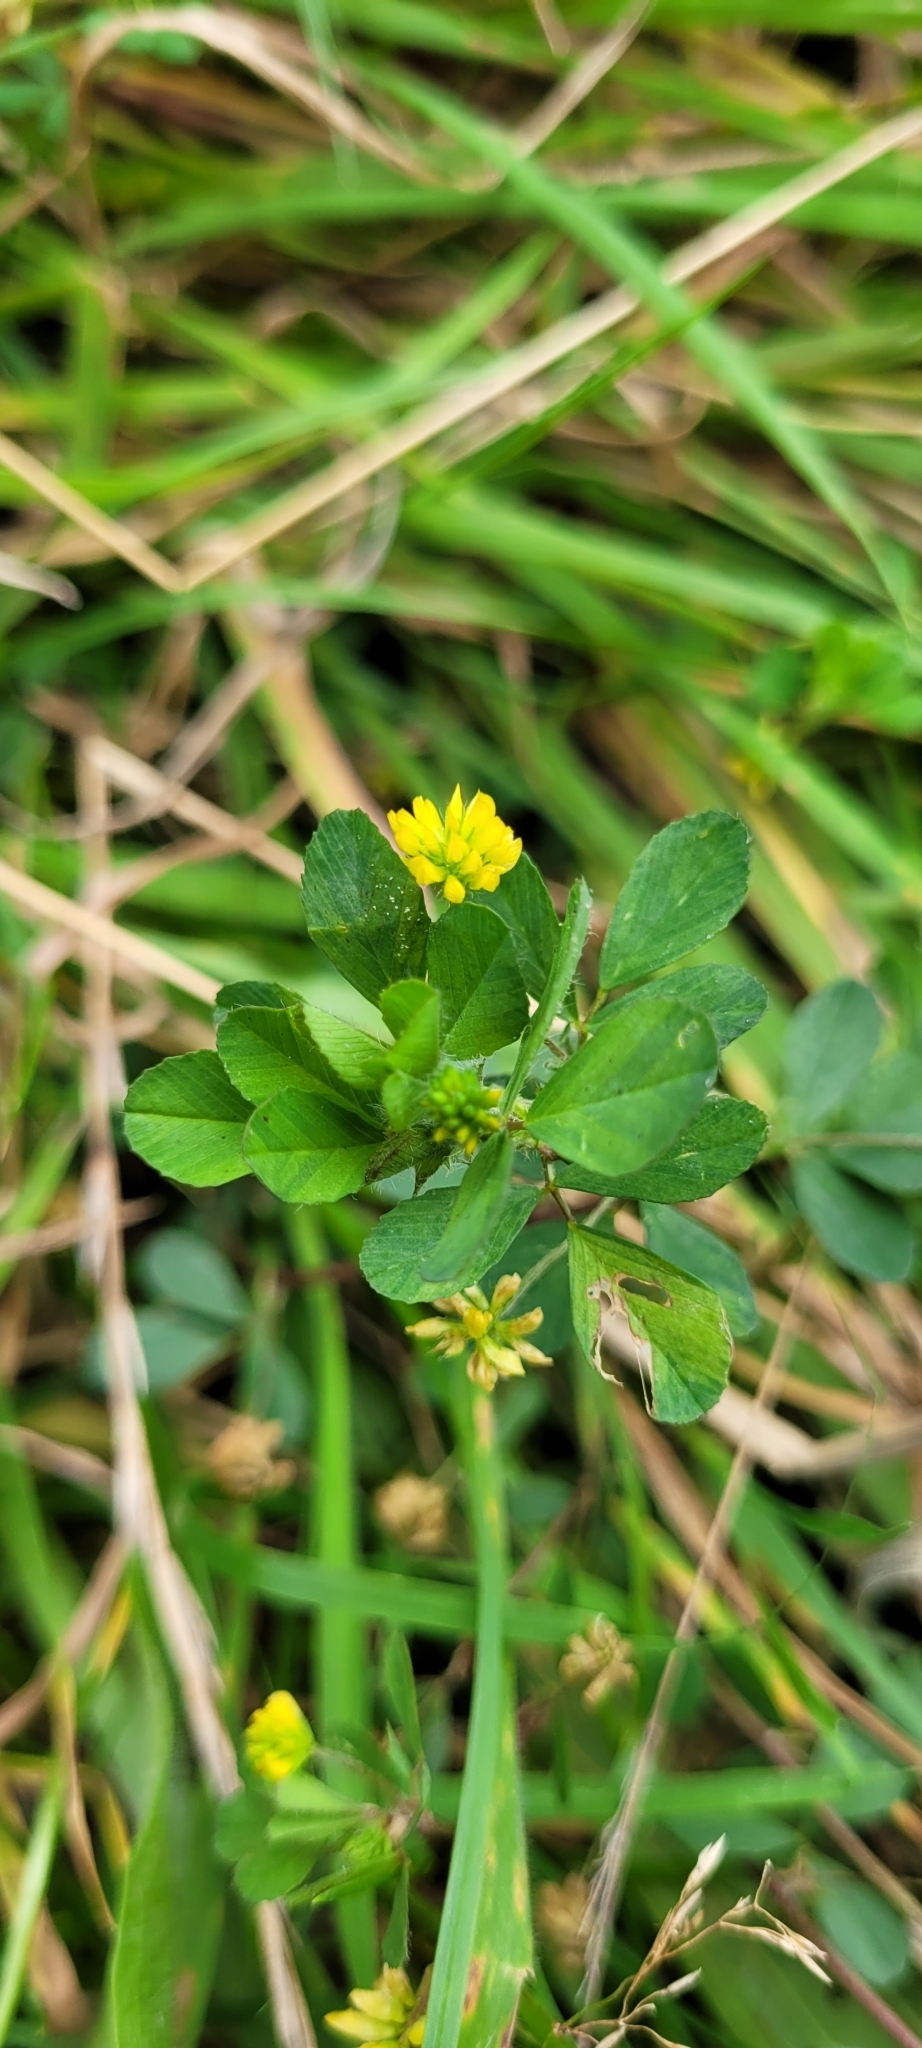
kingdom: Plantae
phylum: Tracheophyta
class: Magnoliopsida
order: Fabales
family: Fabaceae
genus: Trifolium
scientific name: Trifolium dubium
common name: Suckling clover
